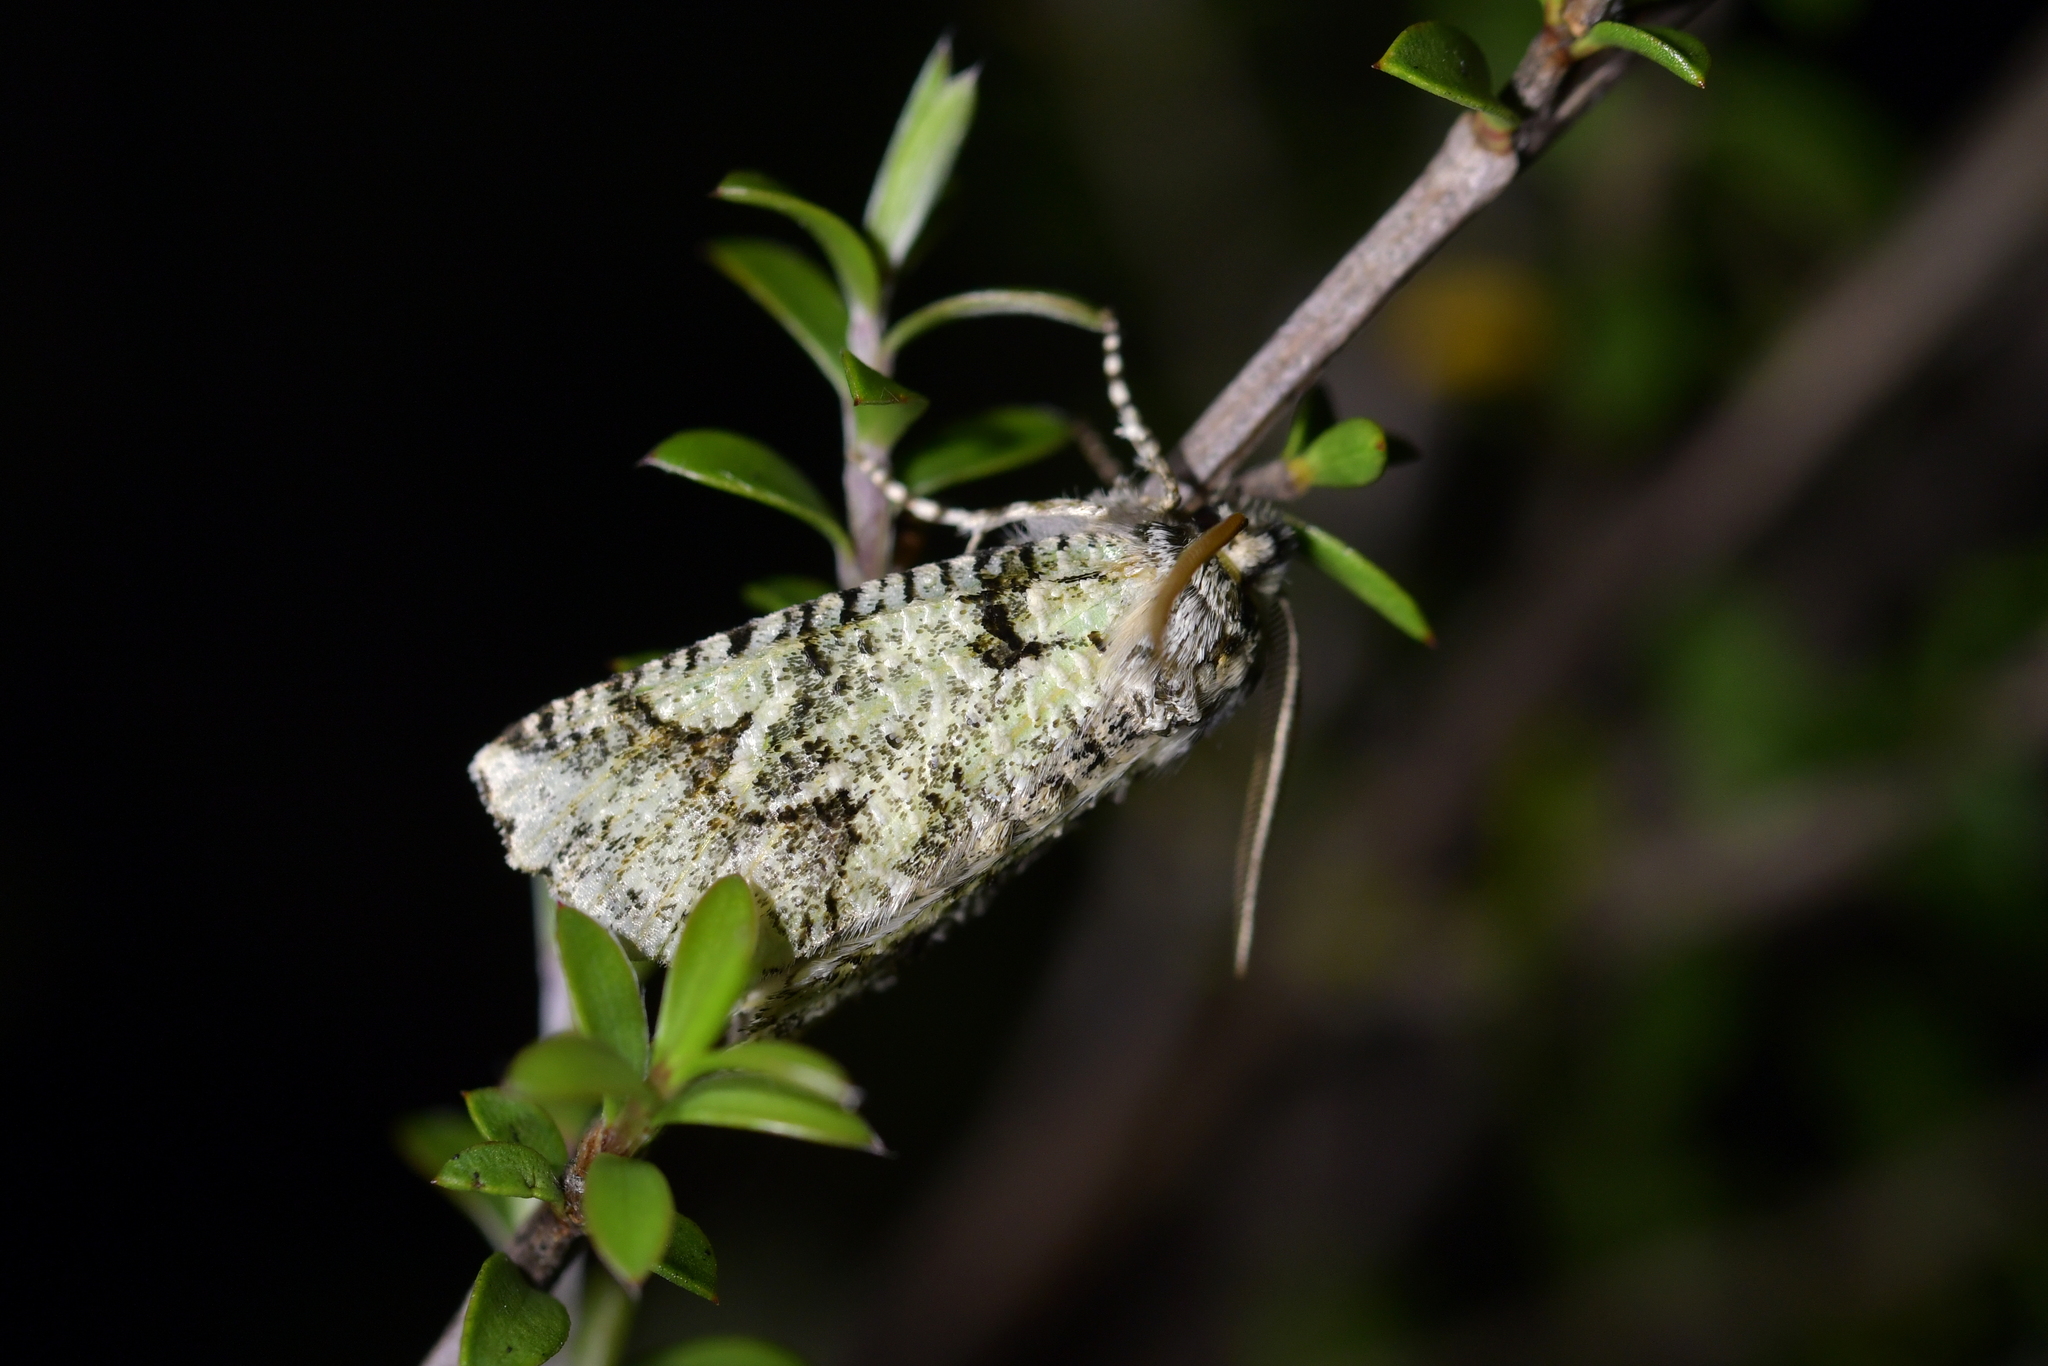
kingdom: Animalia
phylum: Arthropoda
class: Insecta
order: Lepidoptera
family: Geometridae
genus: Declana
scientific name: Declana floccosa
